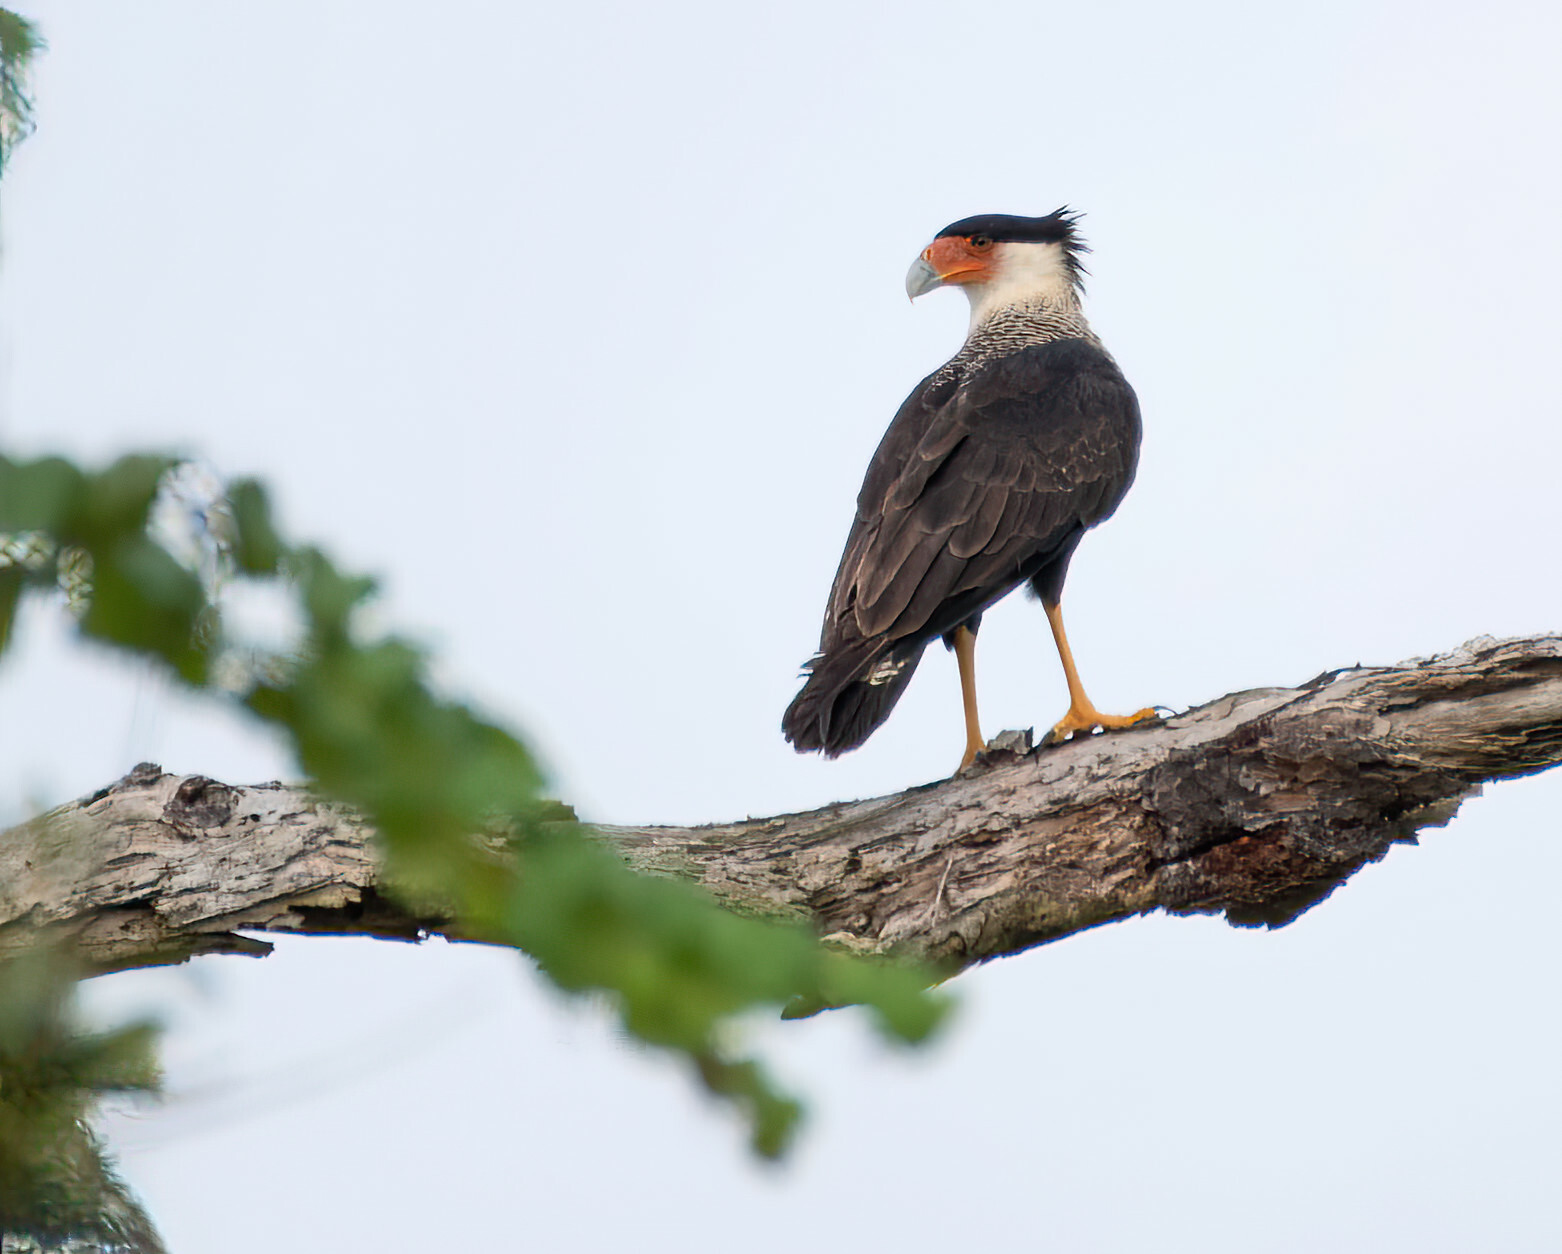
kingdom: Animalia
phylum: Chordata
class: Aves
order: Falconiformes
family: Falconidae
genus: Caracara
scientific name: Caracara plancus
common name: Southern caracara
